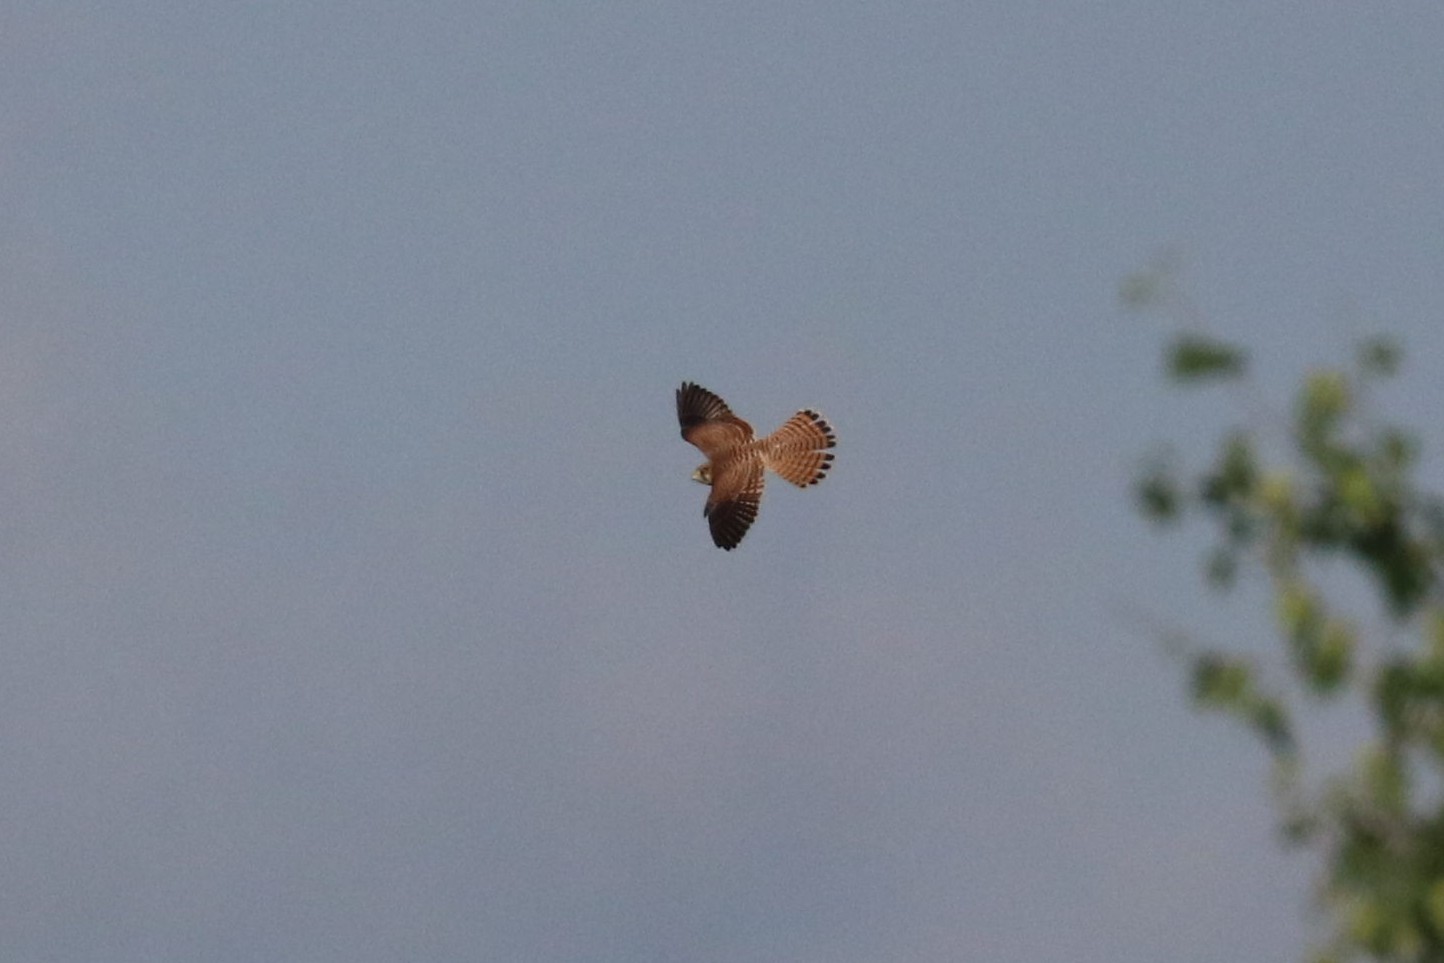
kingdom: Animalia
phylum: Chordata
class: Aves
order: Falconiformes
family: Falconidae
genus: Falco
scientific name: Falco tinnunculus
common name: Common kestrel
